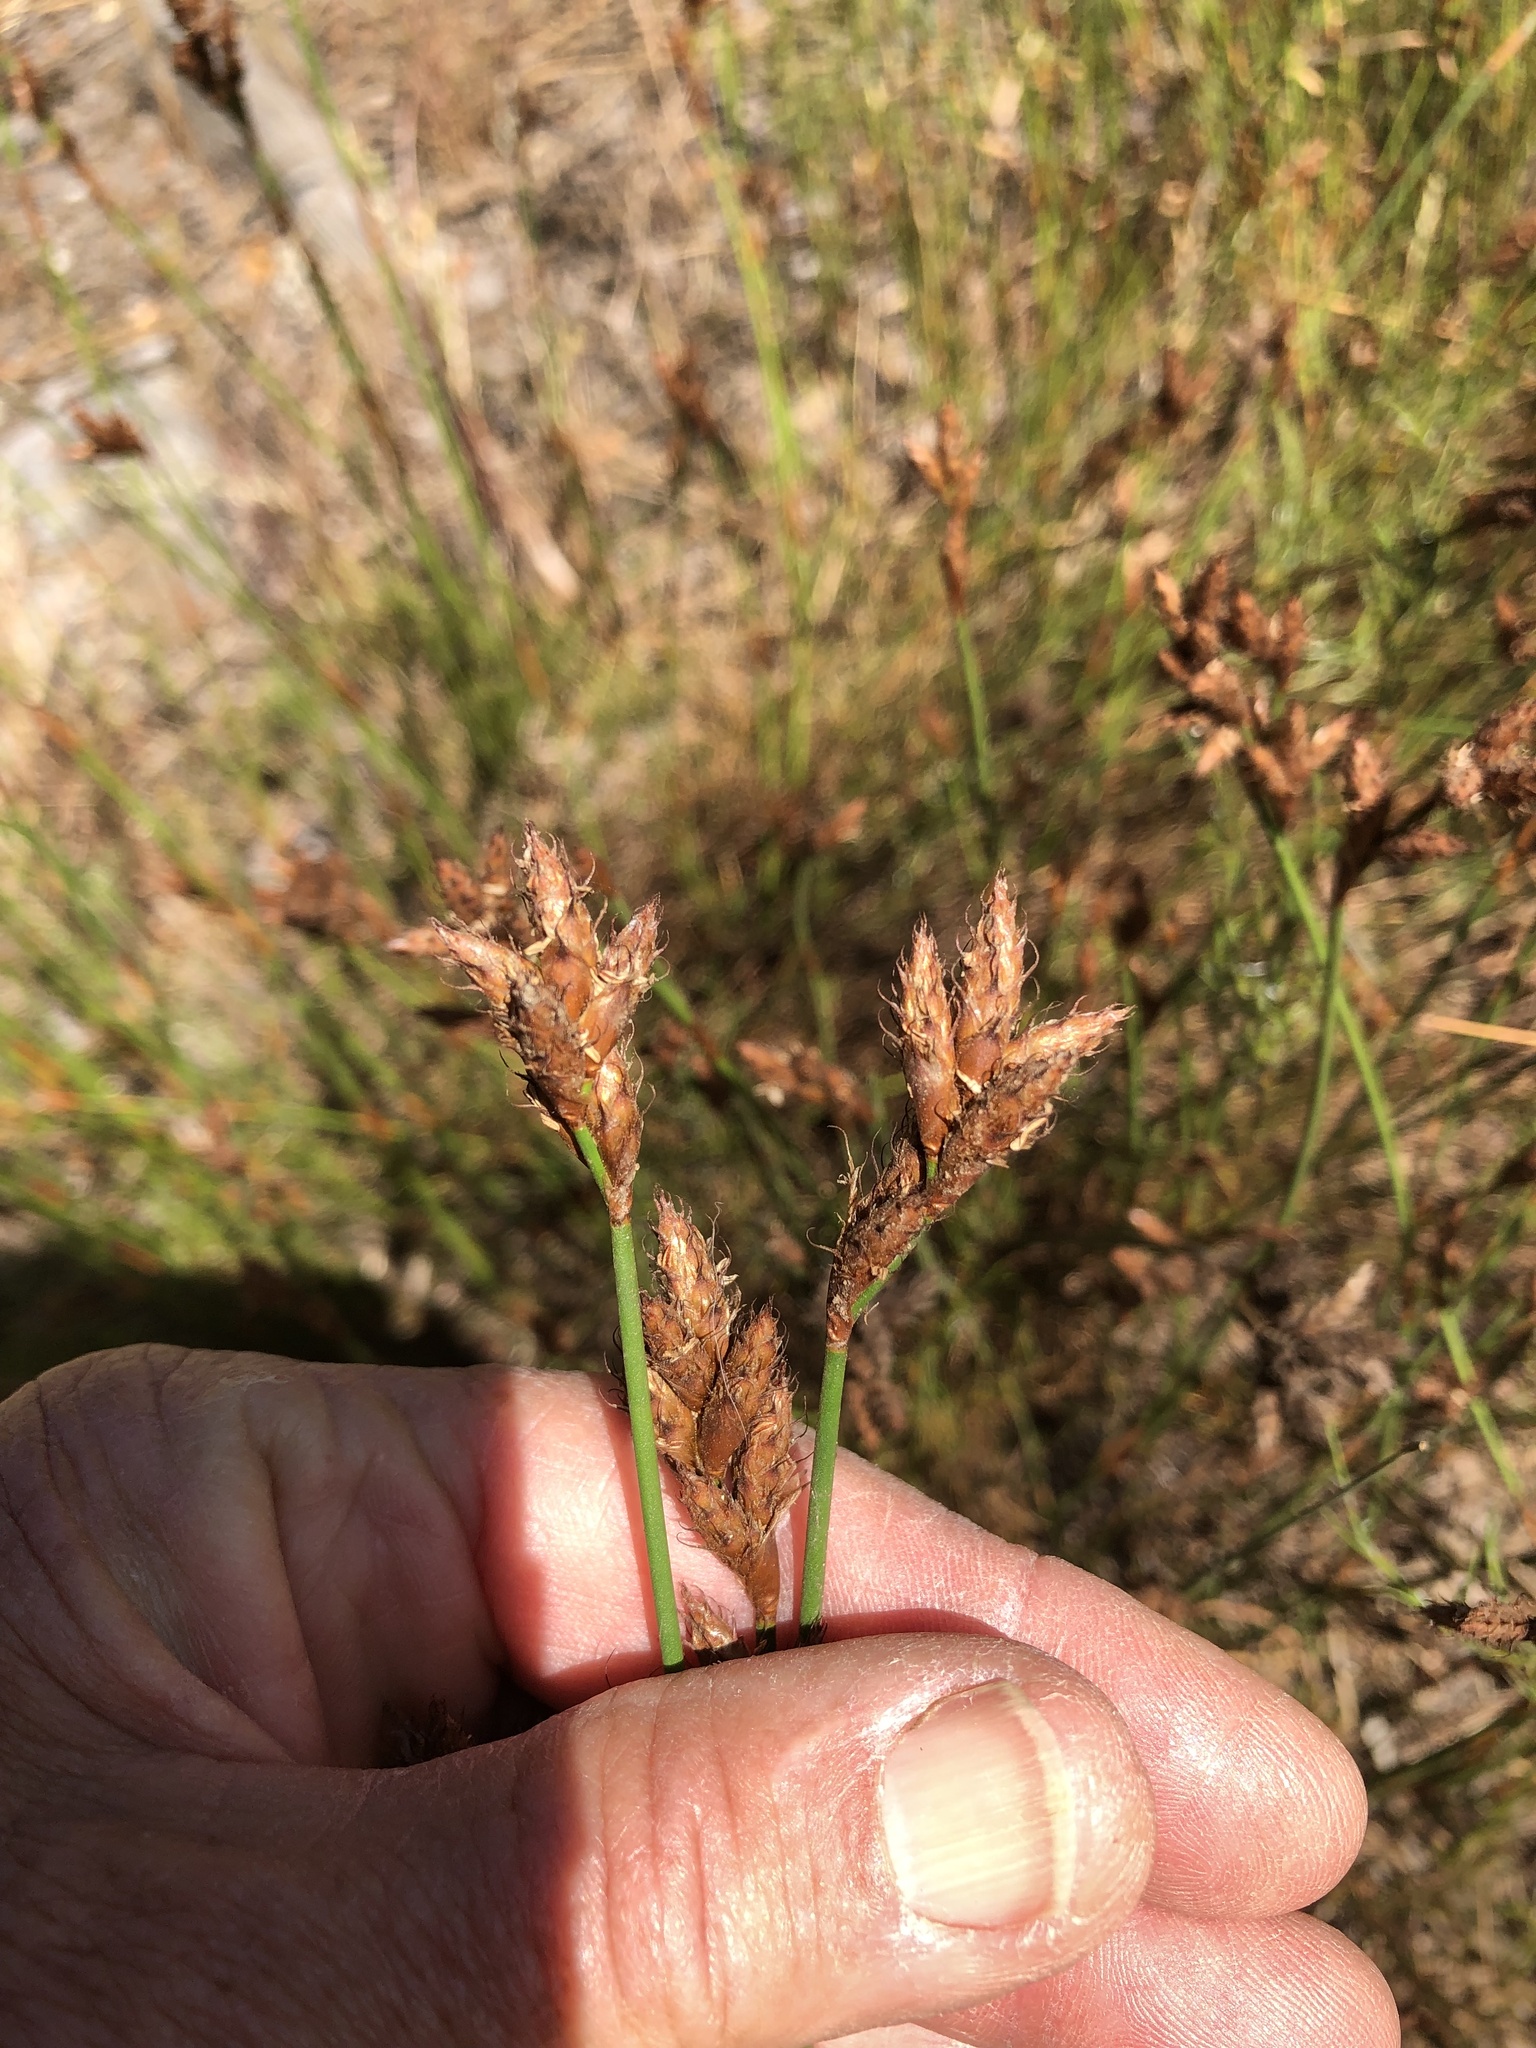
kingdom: Plantae
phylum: Tracheophyta
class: Liliopsida
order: Poales
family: Restionaceae
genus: Restio
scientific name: Restio capensis
